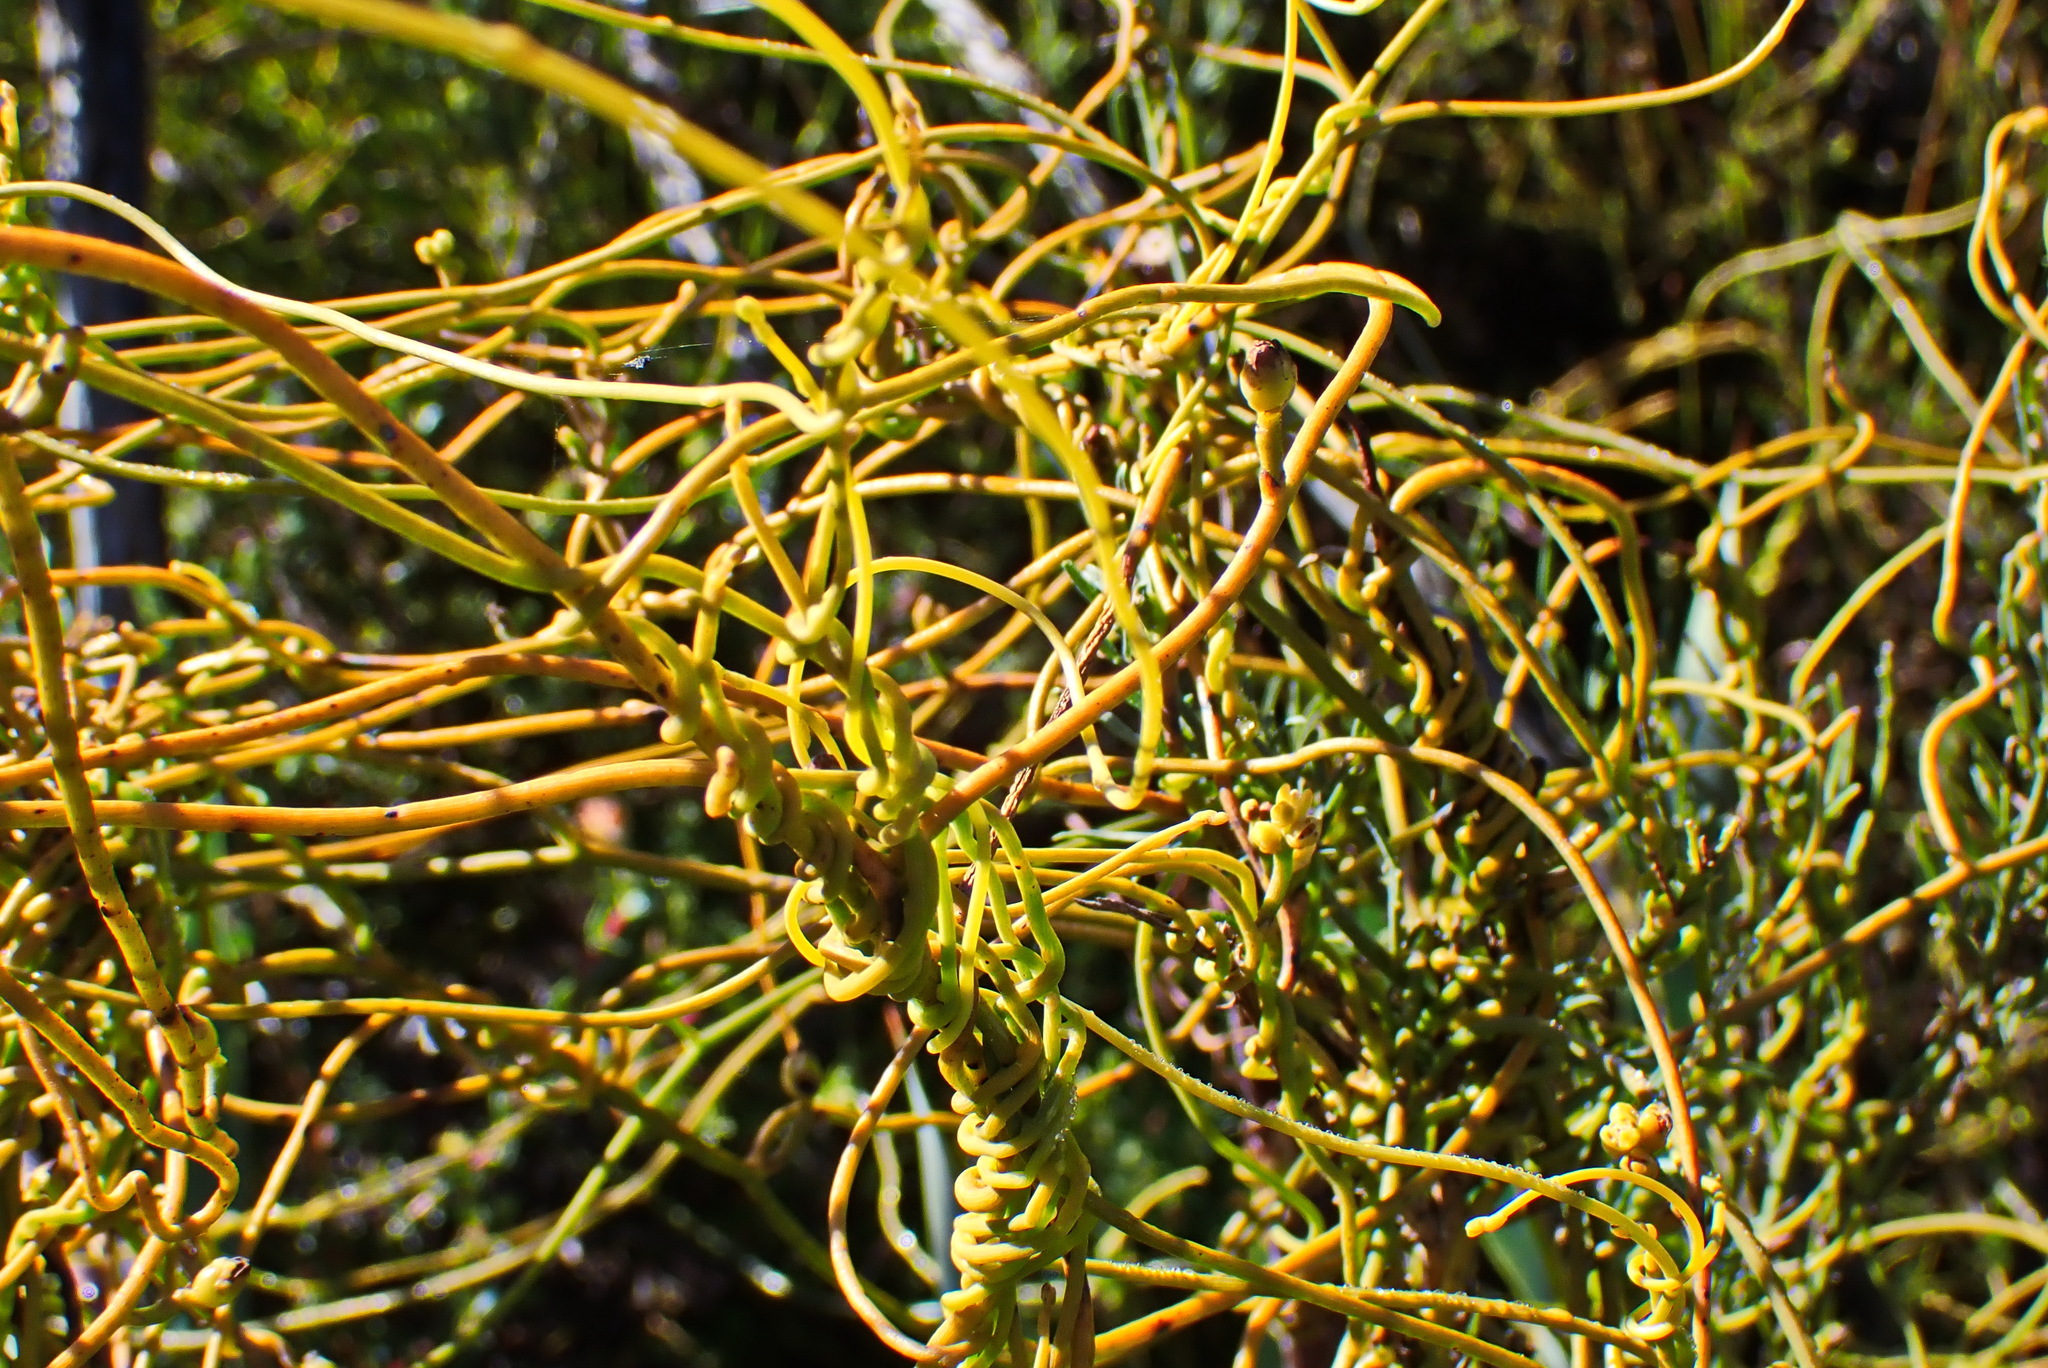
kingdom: Plantae
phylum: Tracheophyta
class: Magnoliopsida
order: Laurales
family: Lauraceae
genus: Cassytha
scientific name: Cassytha ciliolata
